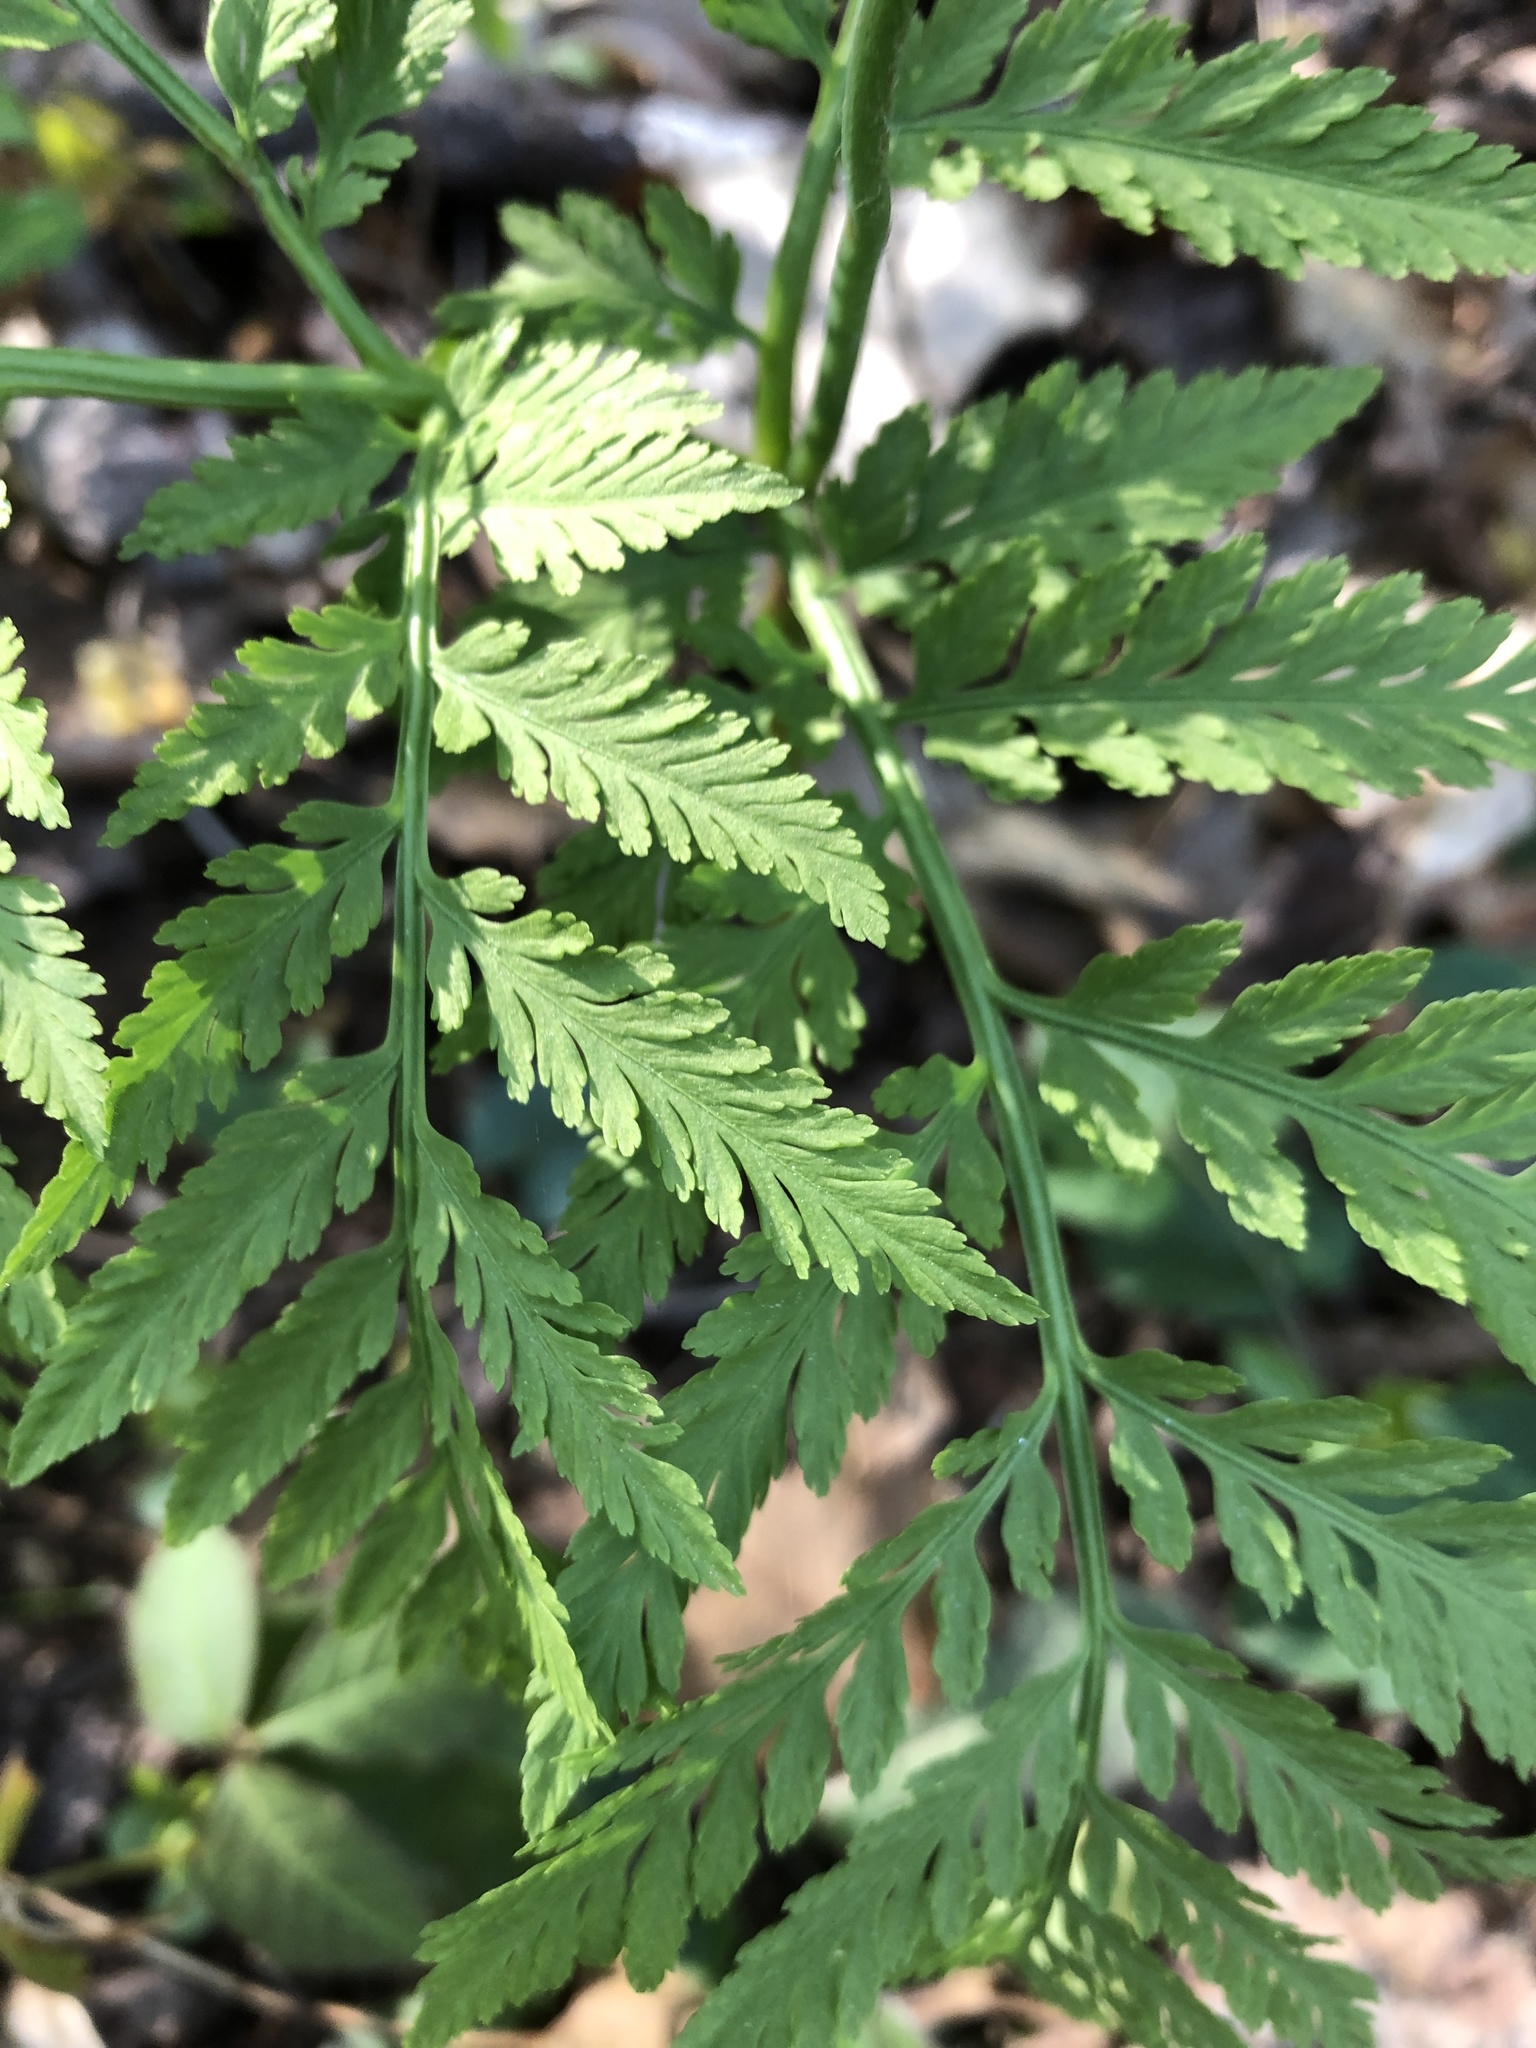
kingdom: Plantae
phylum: Tracheophyta
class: Polypodiopsida
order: Ophioglossales
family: Ophioglossaceae
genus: Botrypus
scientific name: Botrypus virginianus
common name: Common grapefern
